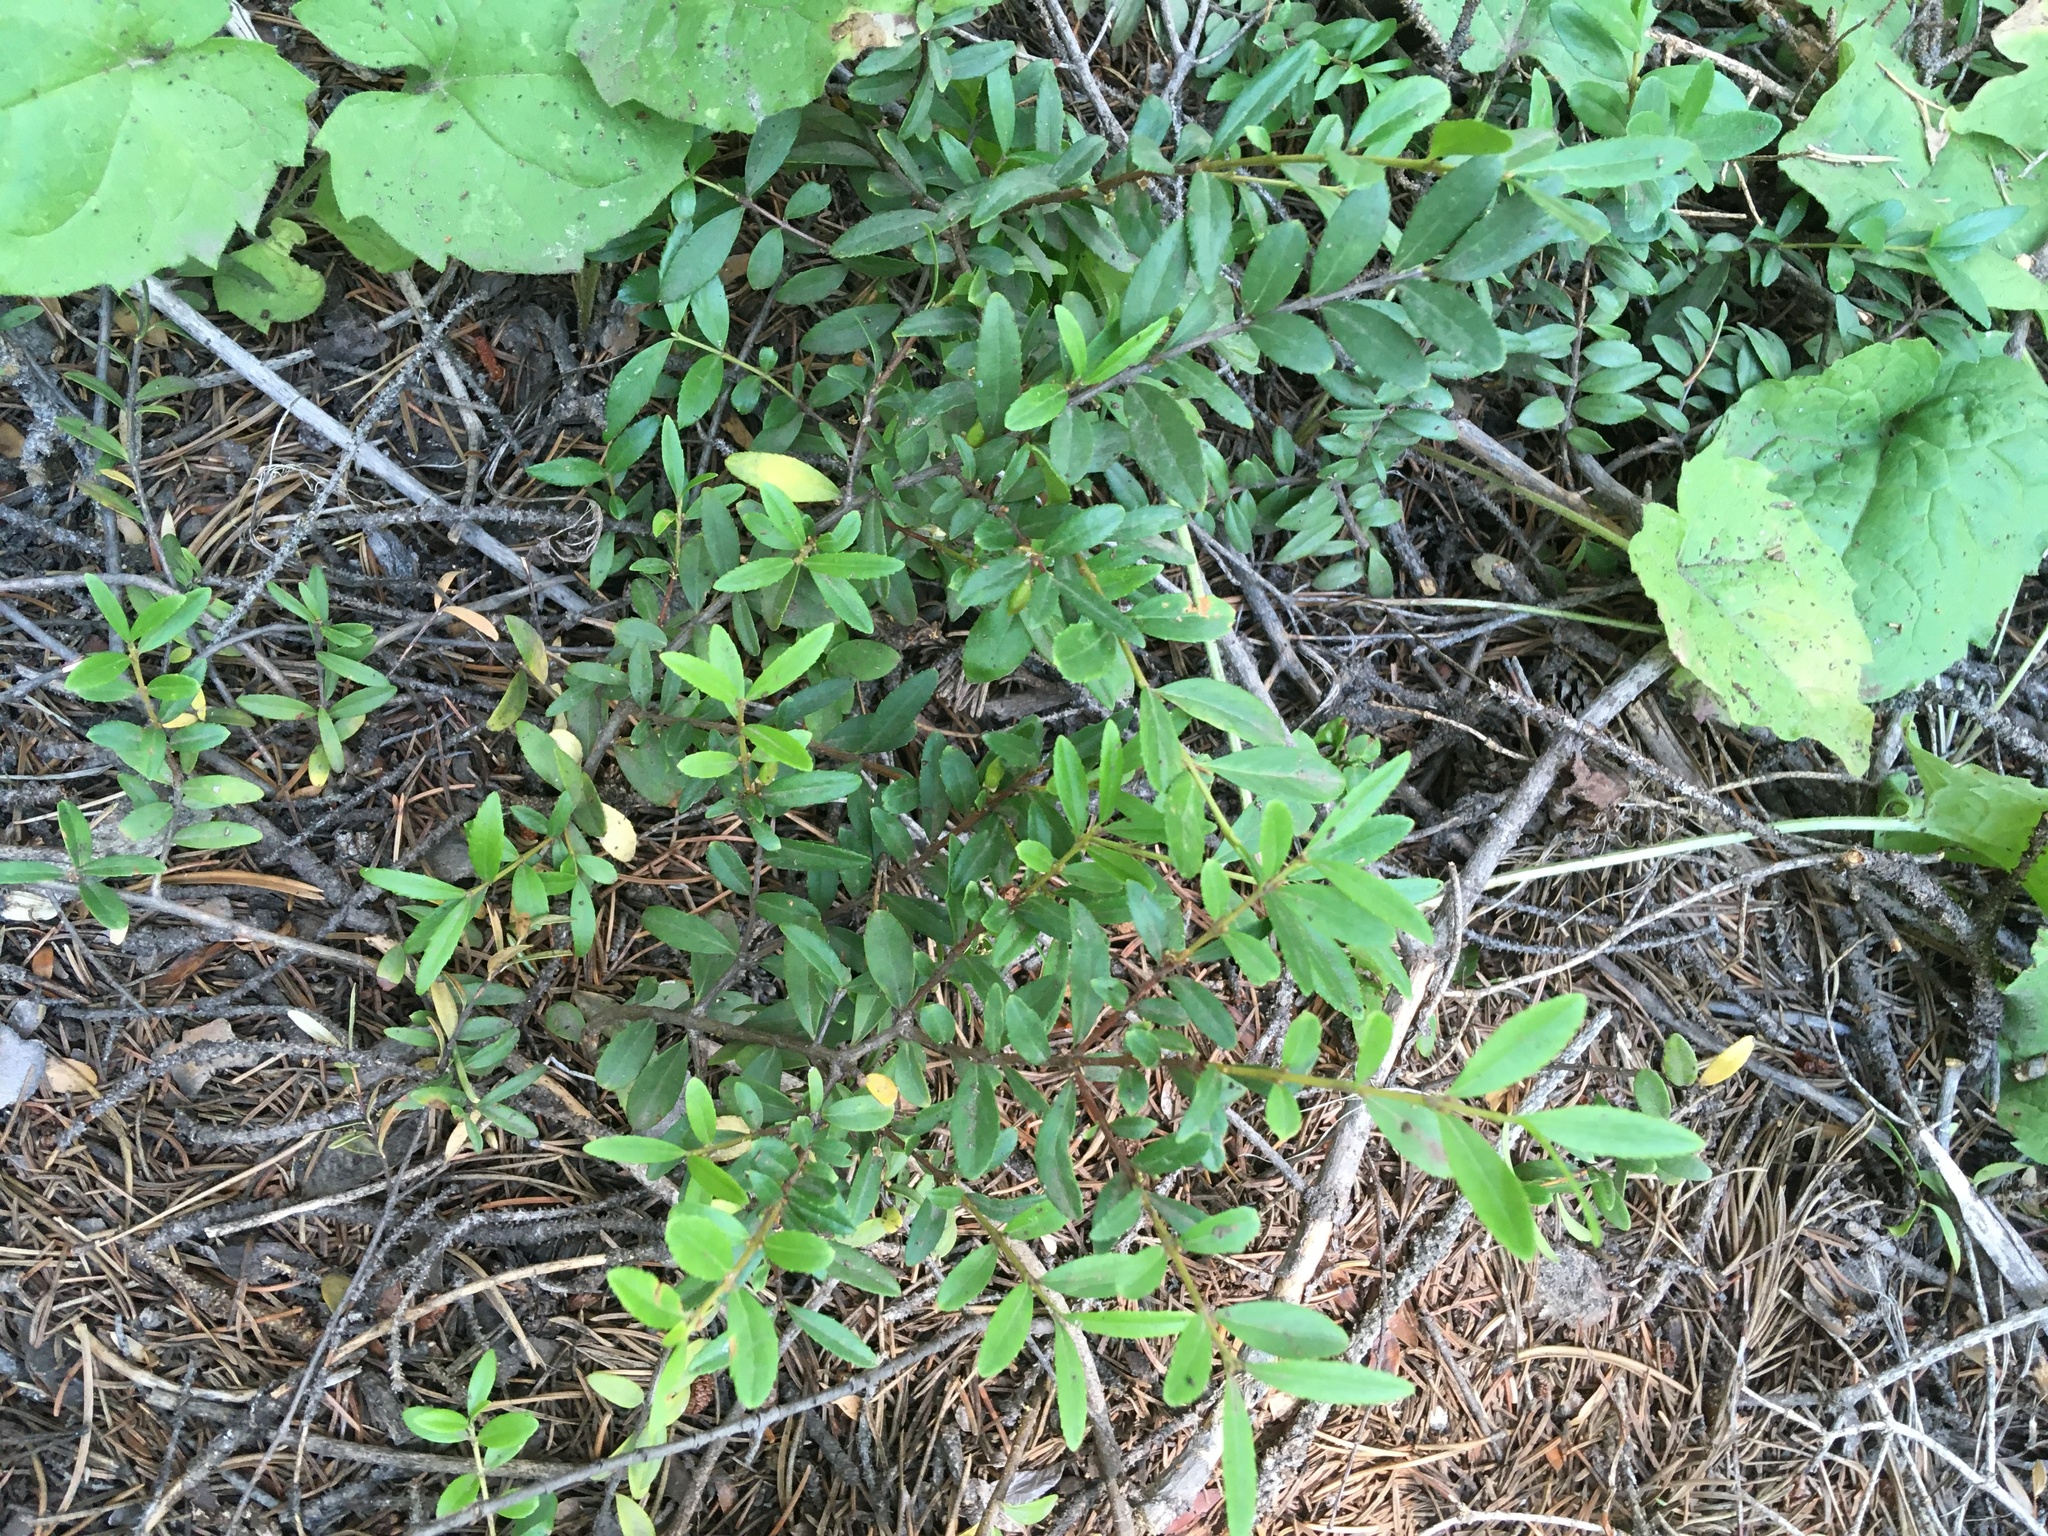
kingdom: Plantae
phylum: Tracheophyta
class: Magnoliopsida
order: Celastrales
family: Celastraceae
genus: Paxistima
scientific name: Paxistima myrsinites
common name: Mountain-lover
